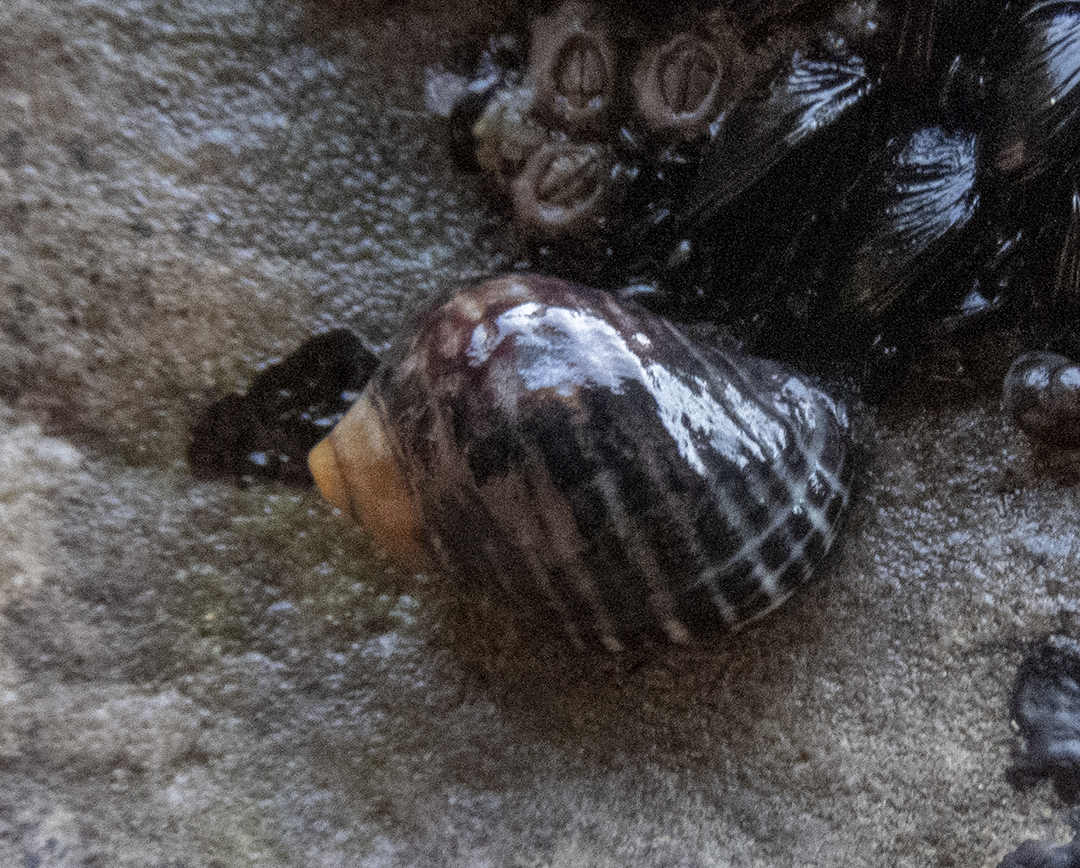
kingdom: Animalia
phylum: Mollusca
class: Gastropoda
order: Neogastropoda
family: Muricidae
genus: Haustrum
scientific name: Haustrum albomarginatum
